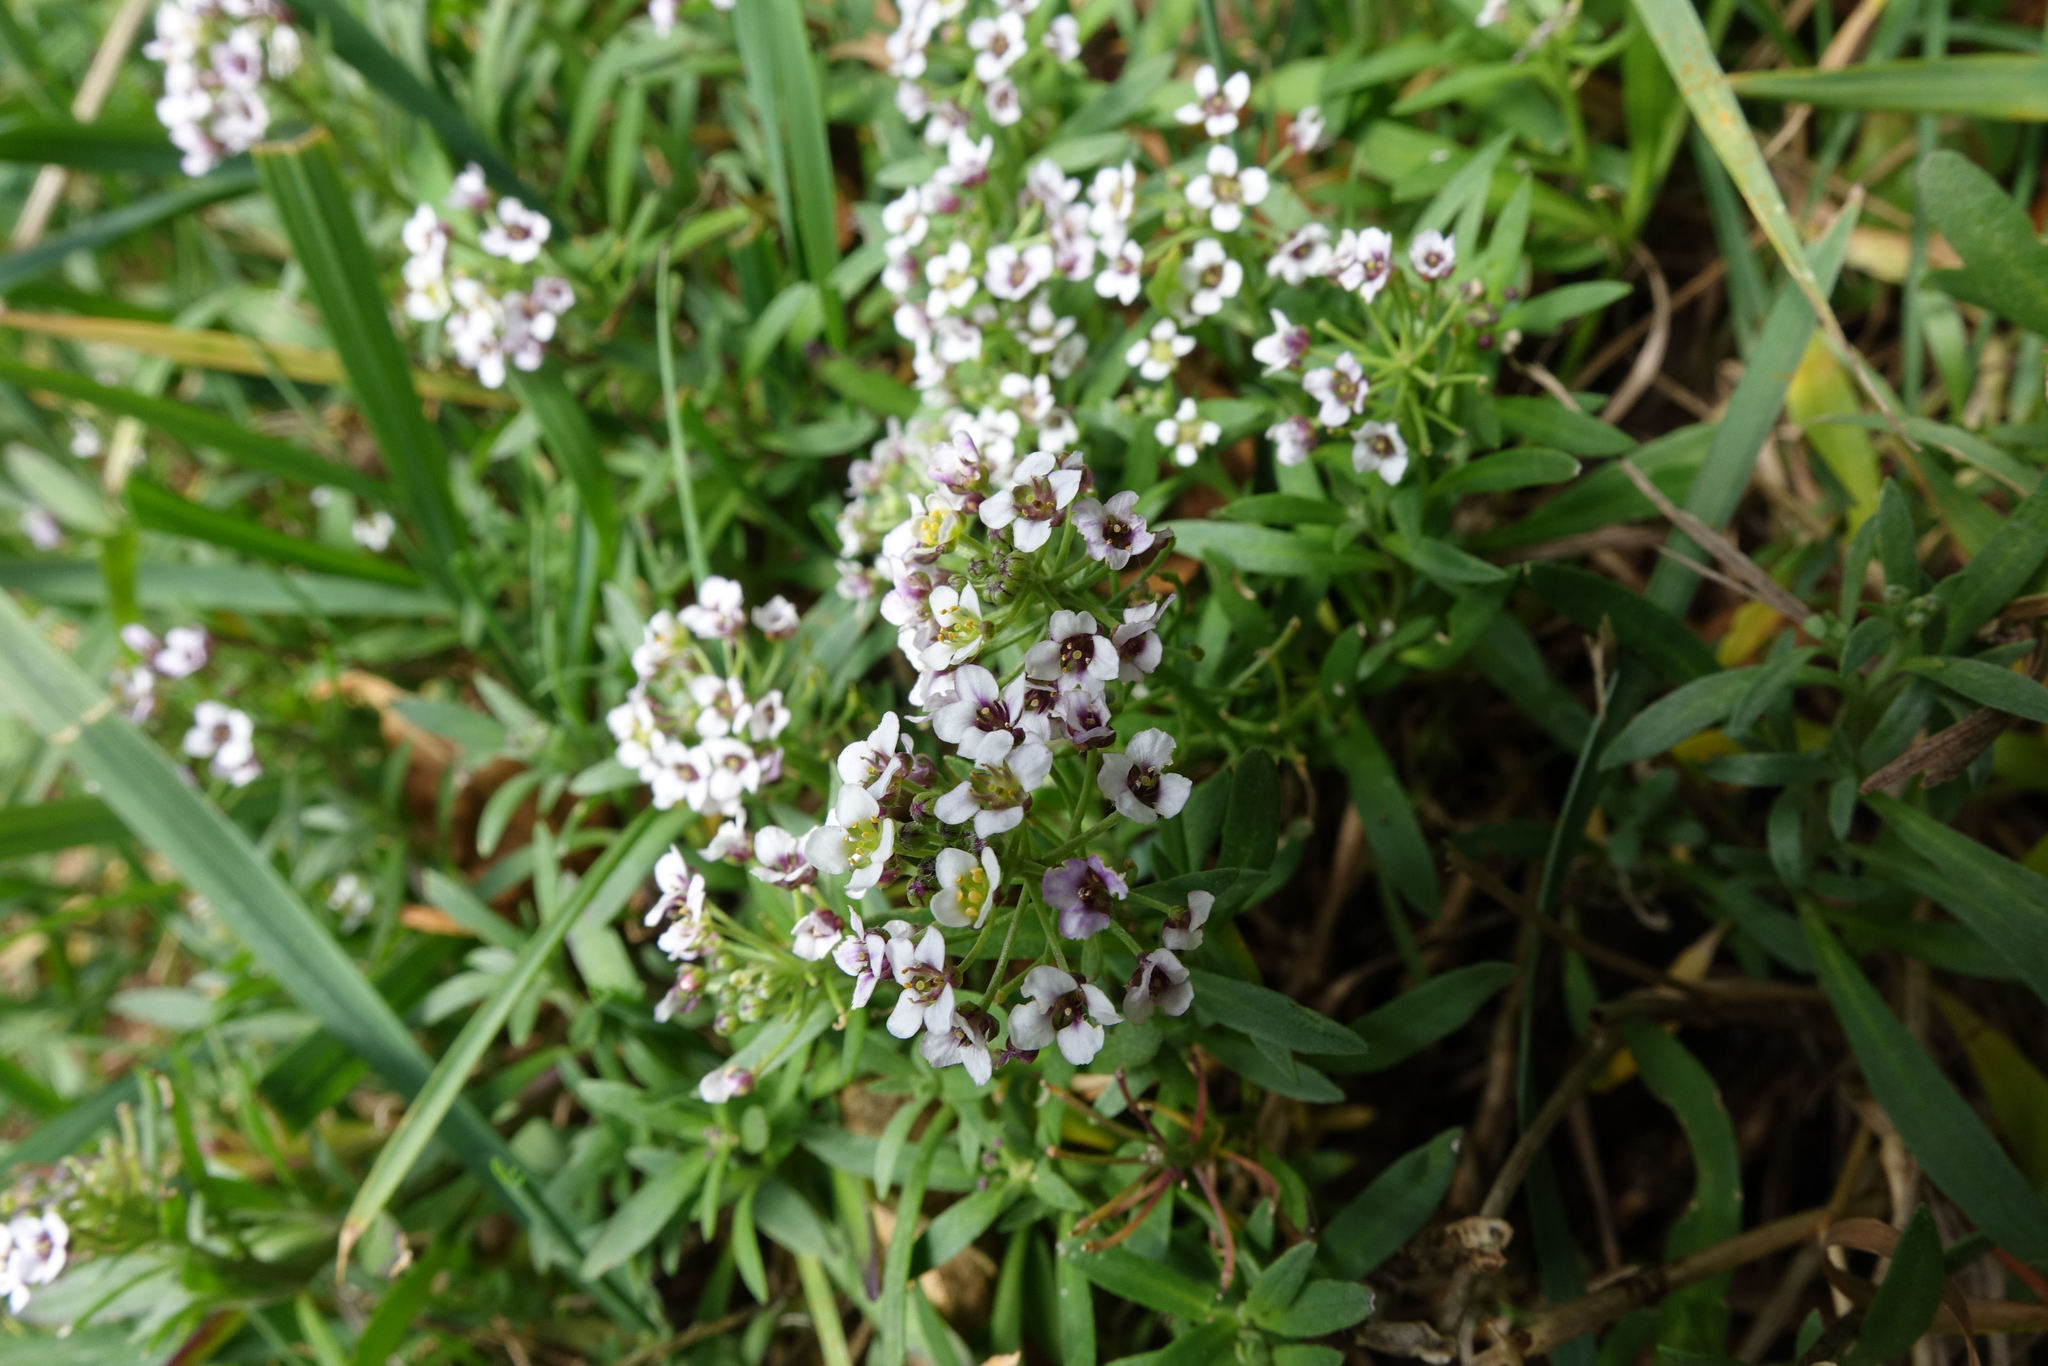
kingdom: Plantae
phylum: Tracheophyta
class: Magnoliopsida
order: Brassicales
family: Brassicaceae
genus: Lobularia
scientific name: Lobularia maritima
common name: Sweet alison
